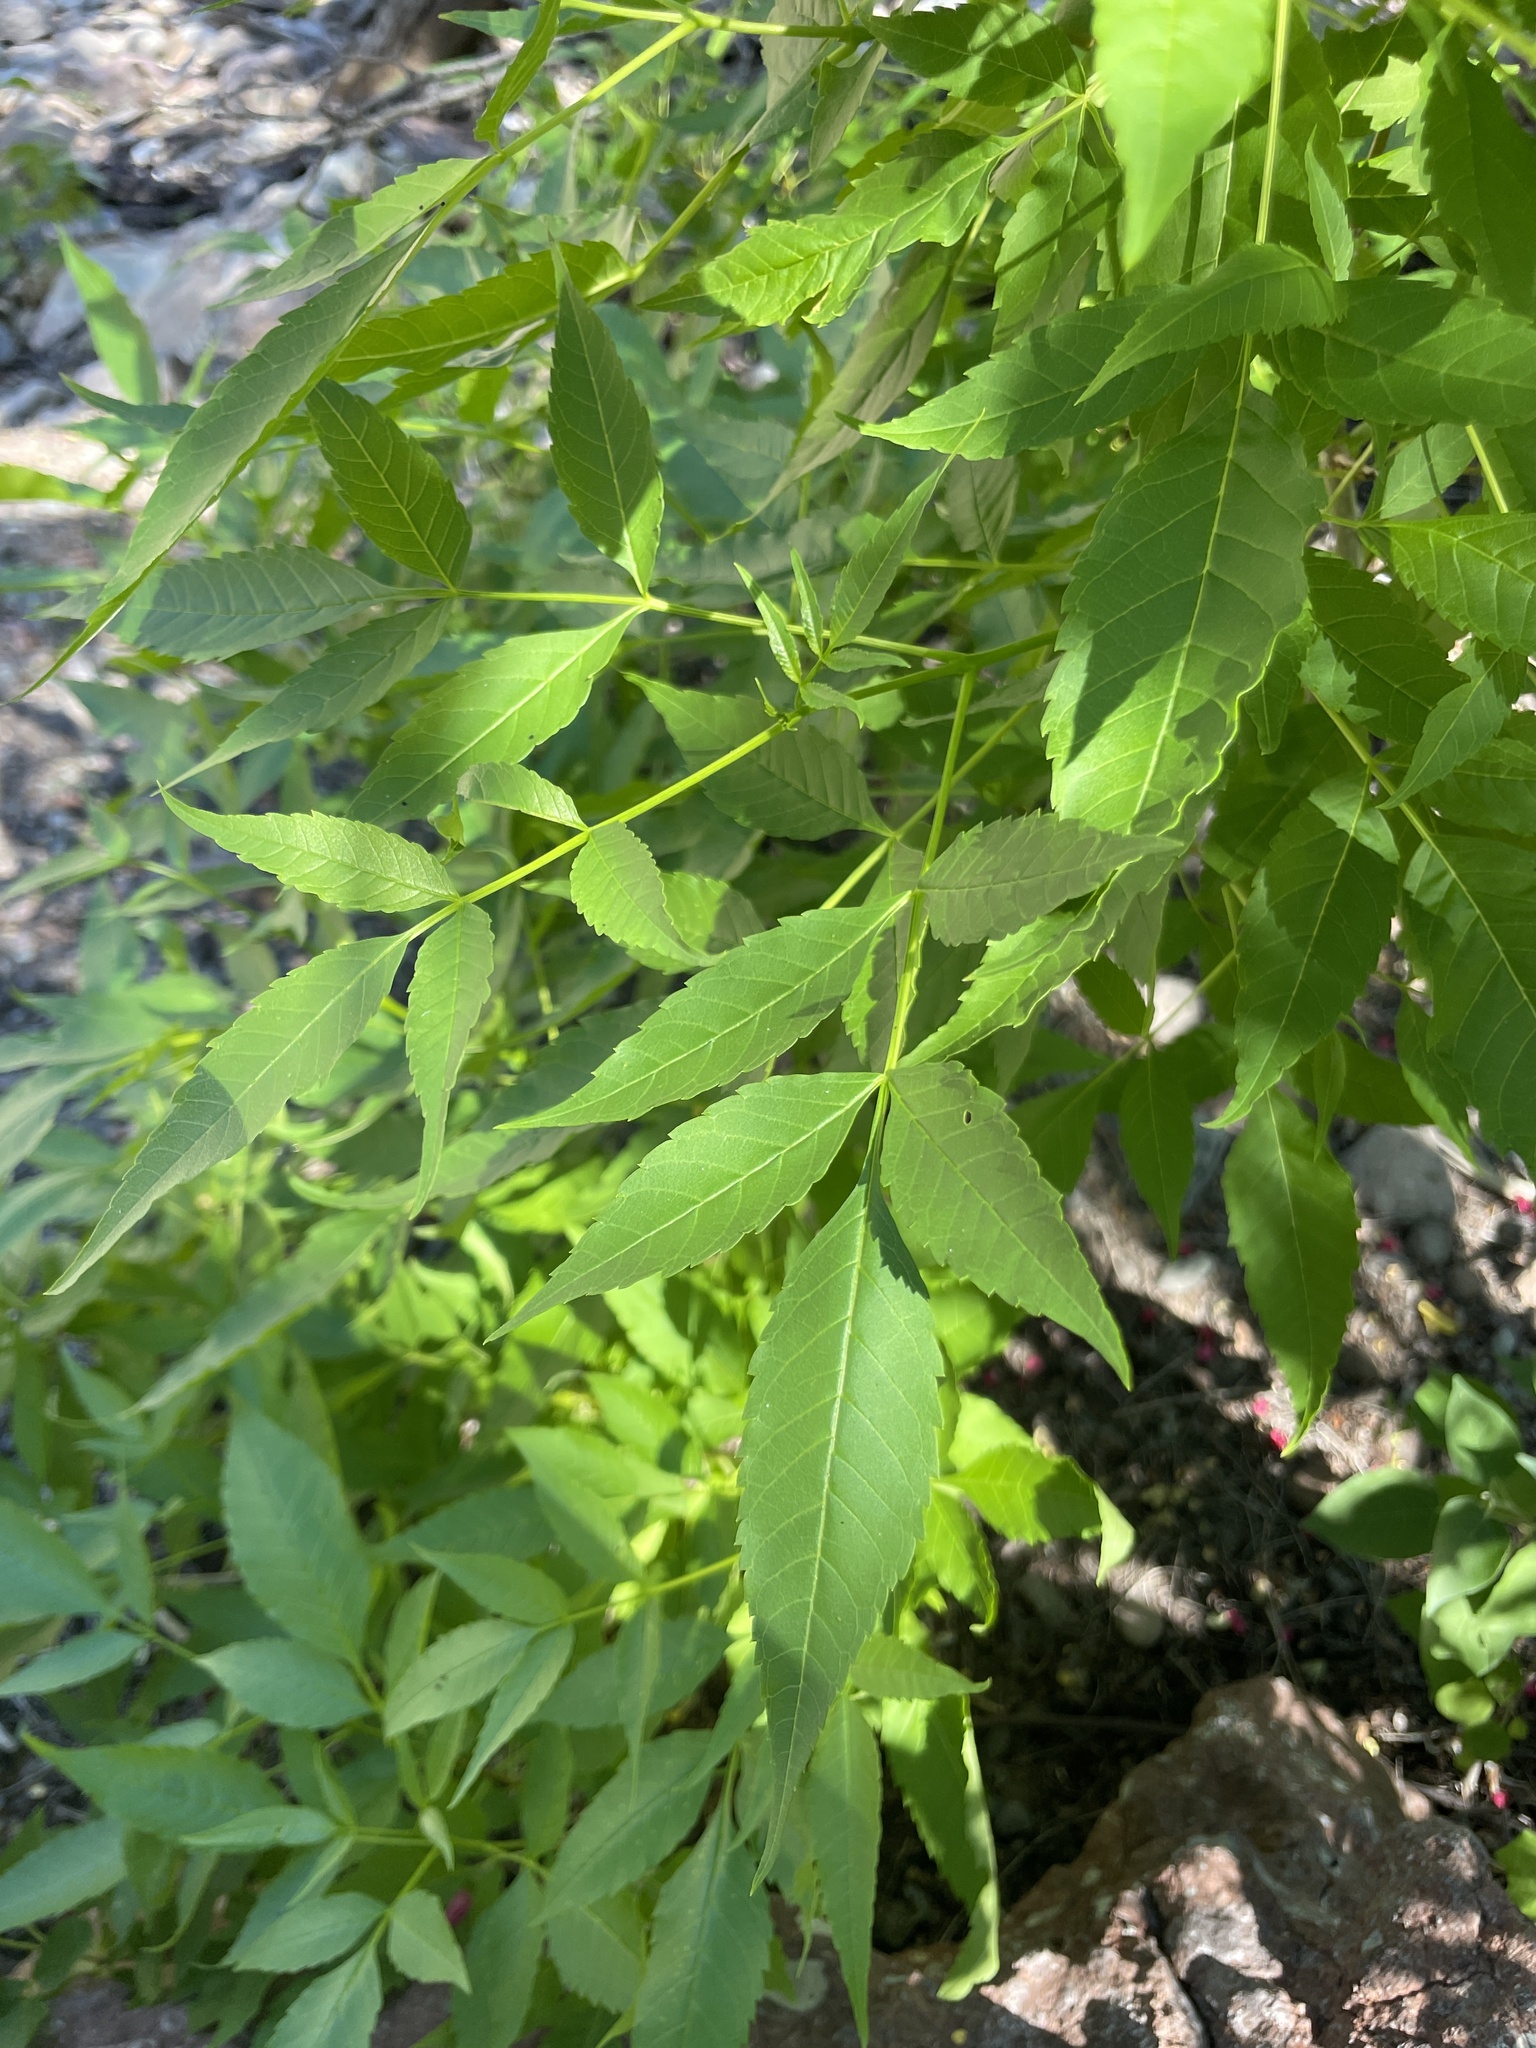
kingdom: Plantae
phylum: Tracheophyta
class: Magnoliopsida
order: Lamiales
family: Bignoniaceae
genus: Tecoma
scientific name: Tecoma stans
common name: Yellow trumpetbush
